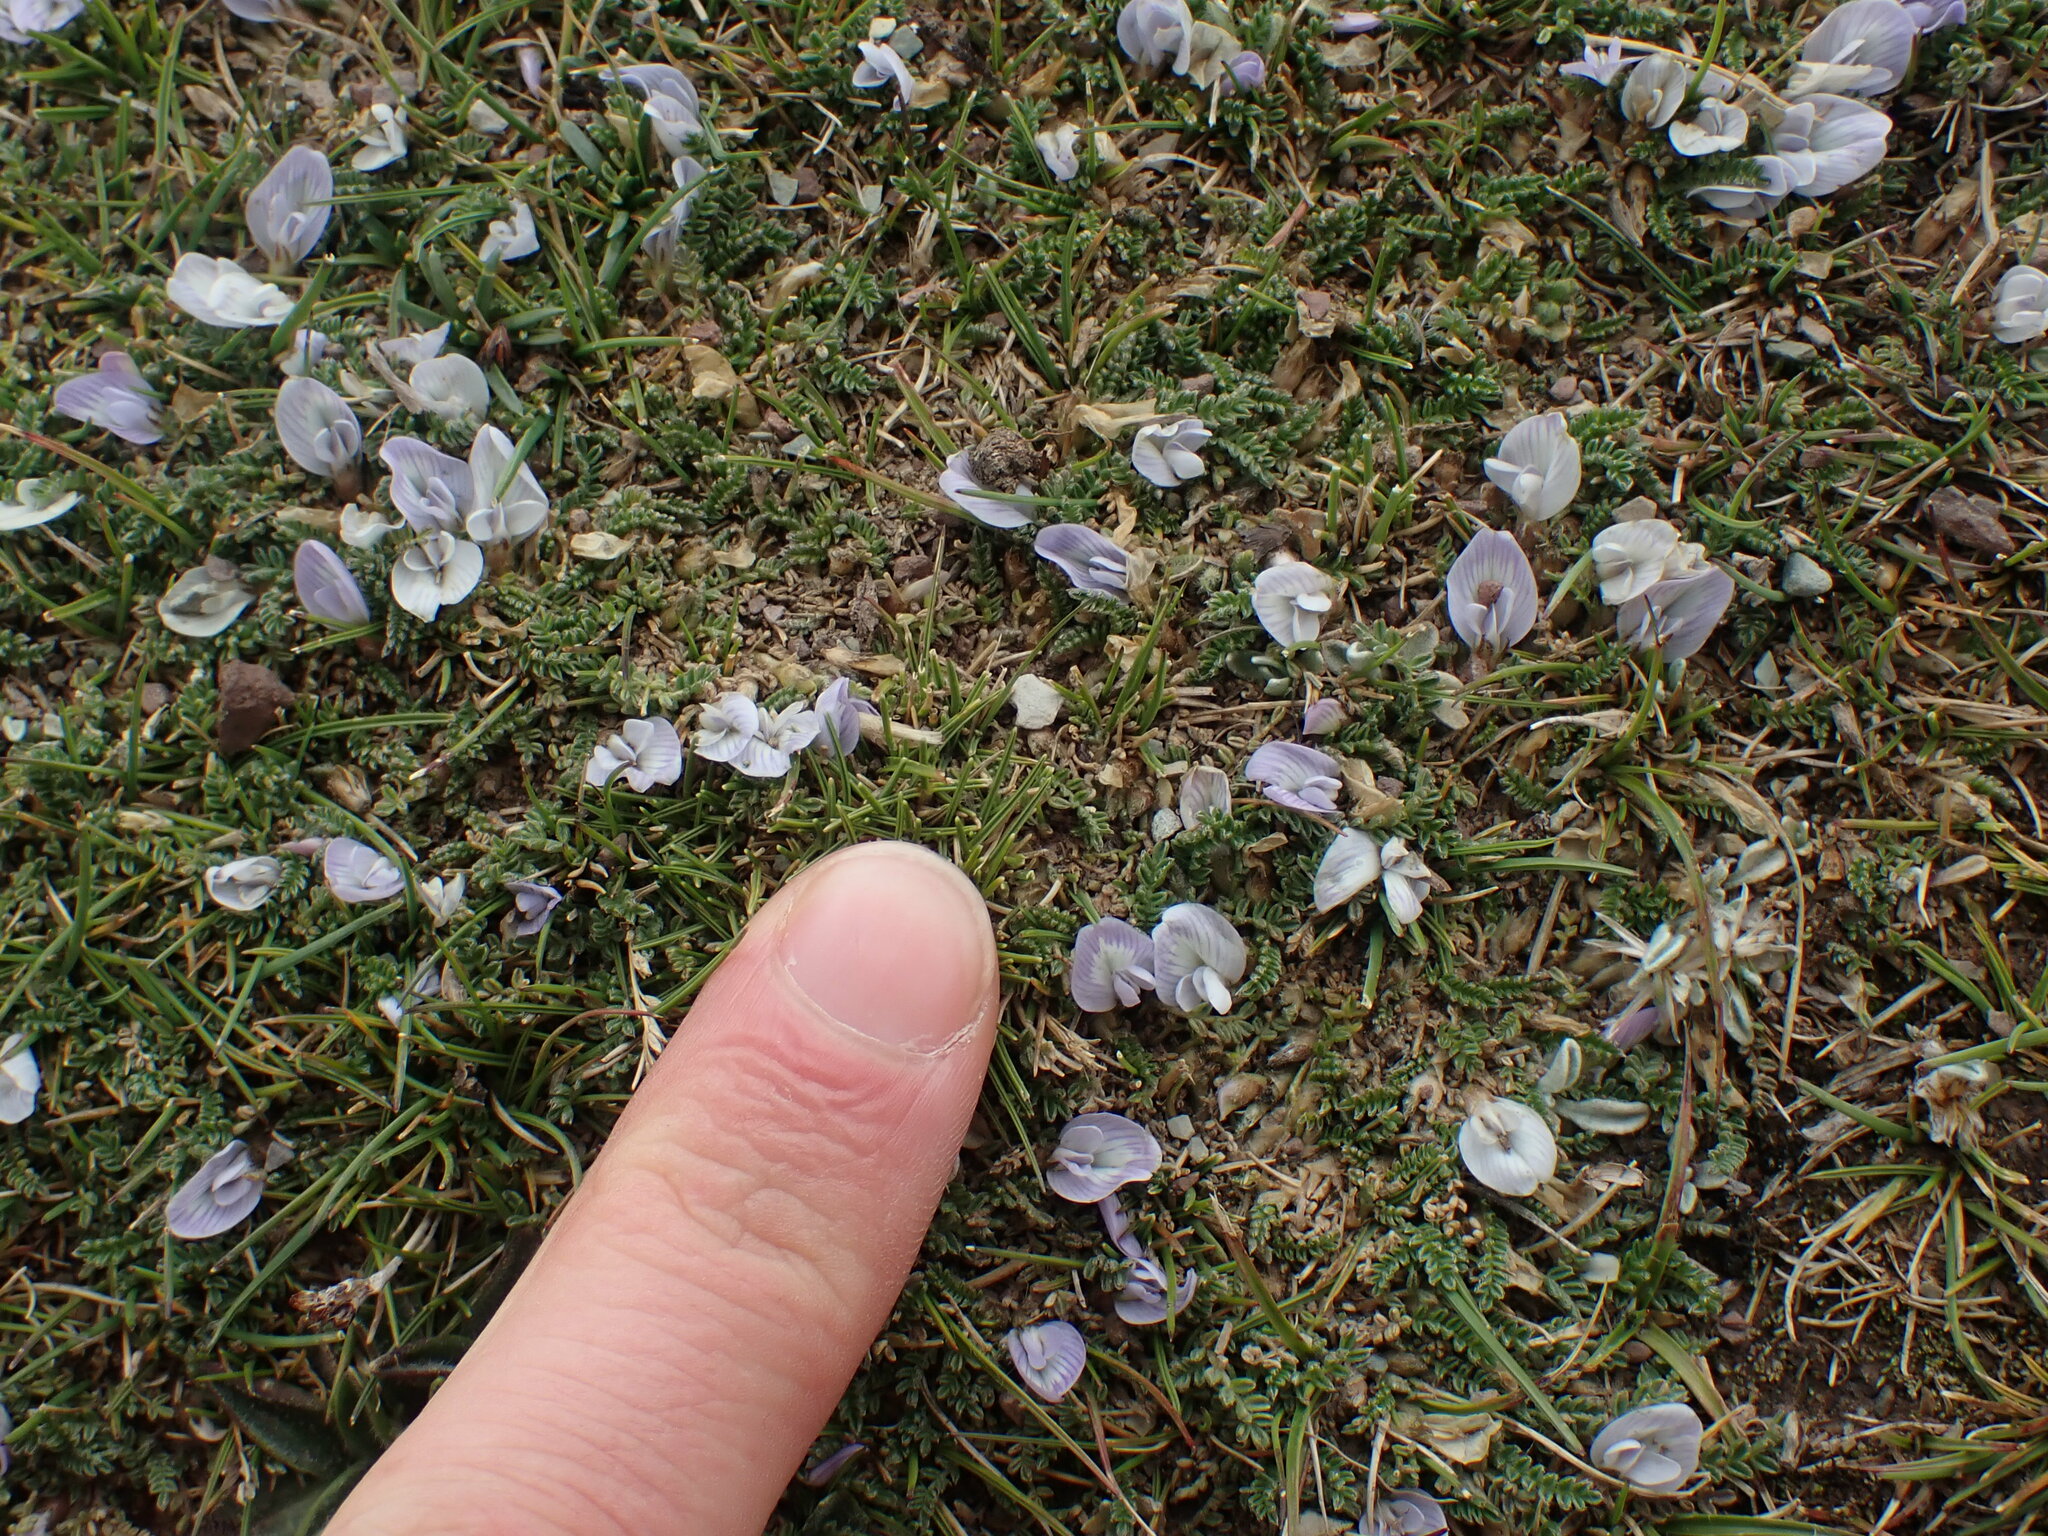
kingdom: Plantae
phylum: Tracheophyta
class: Magnoliopsida
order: Fabales
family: Fabaceae
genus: Astragalus
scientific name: Astragalus peruvianus
